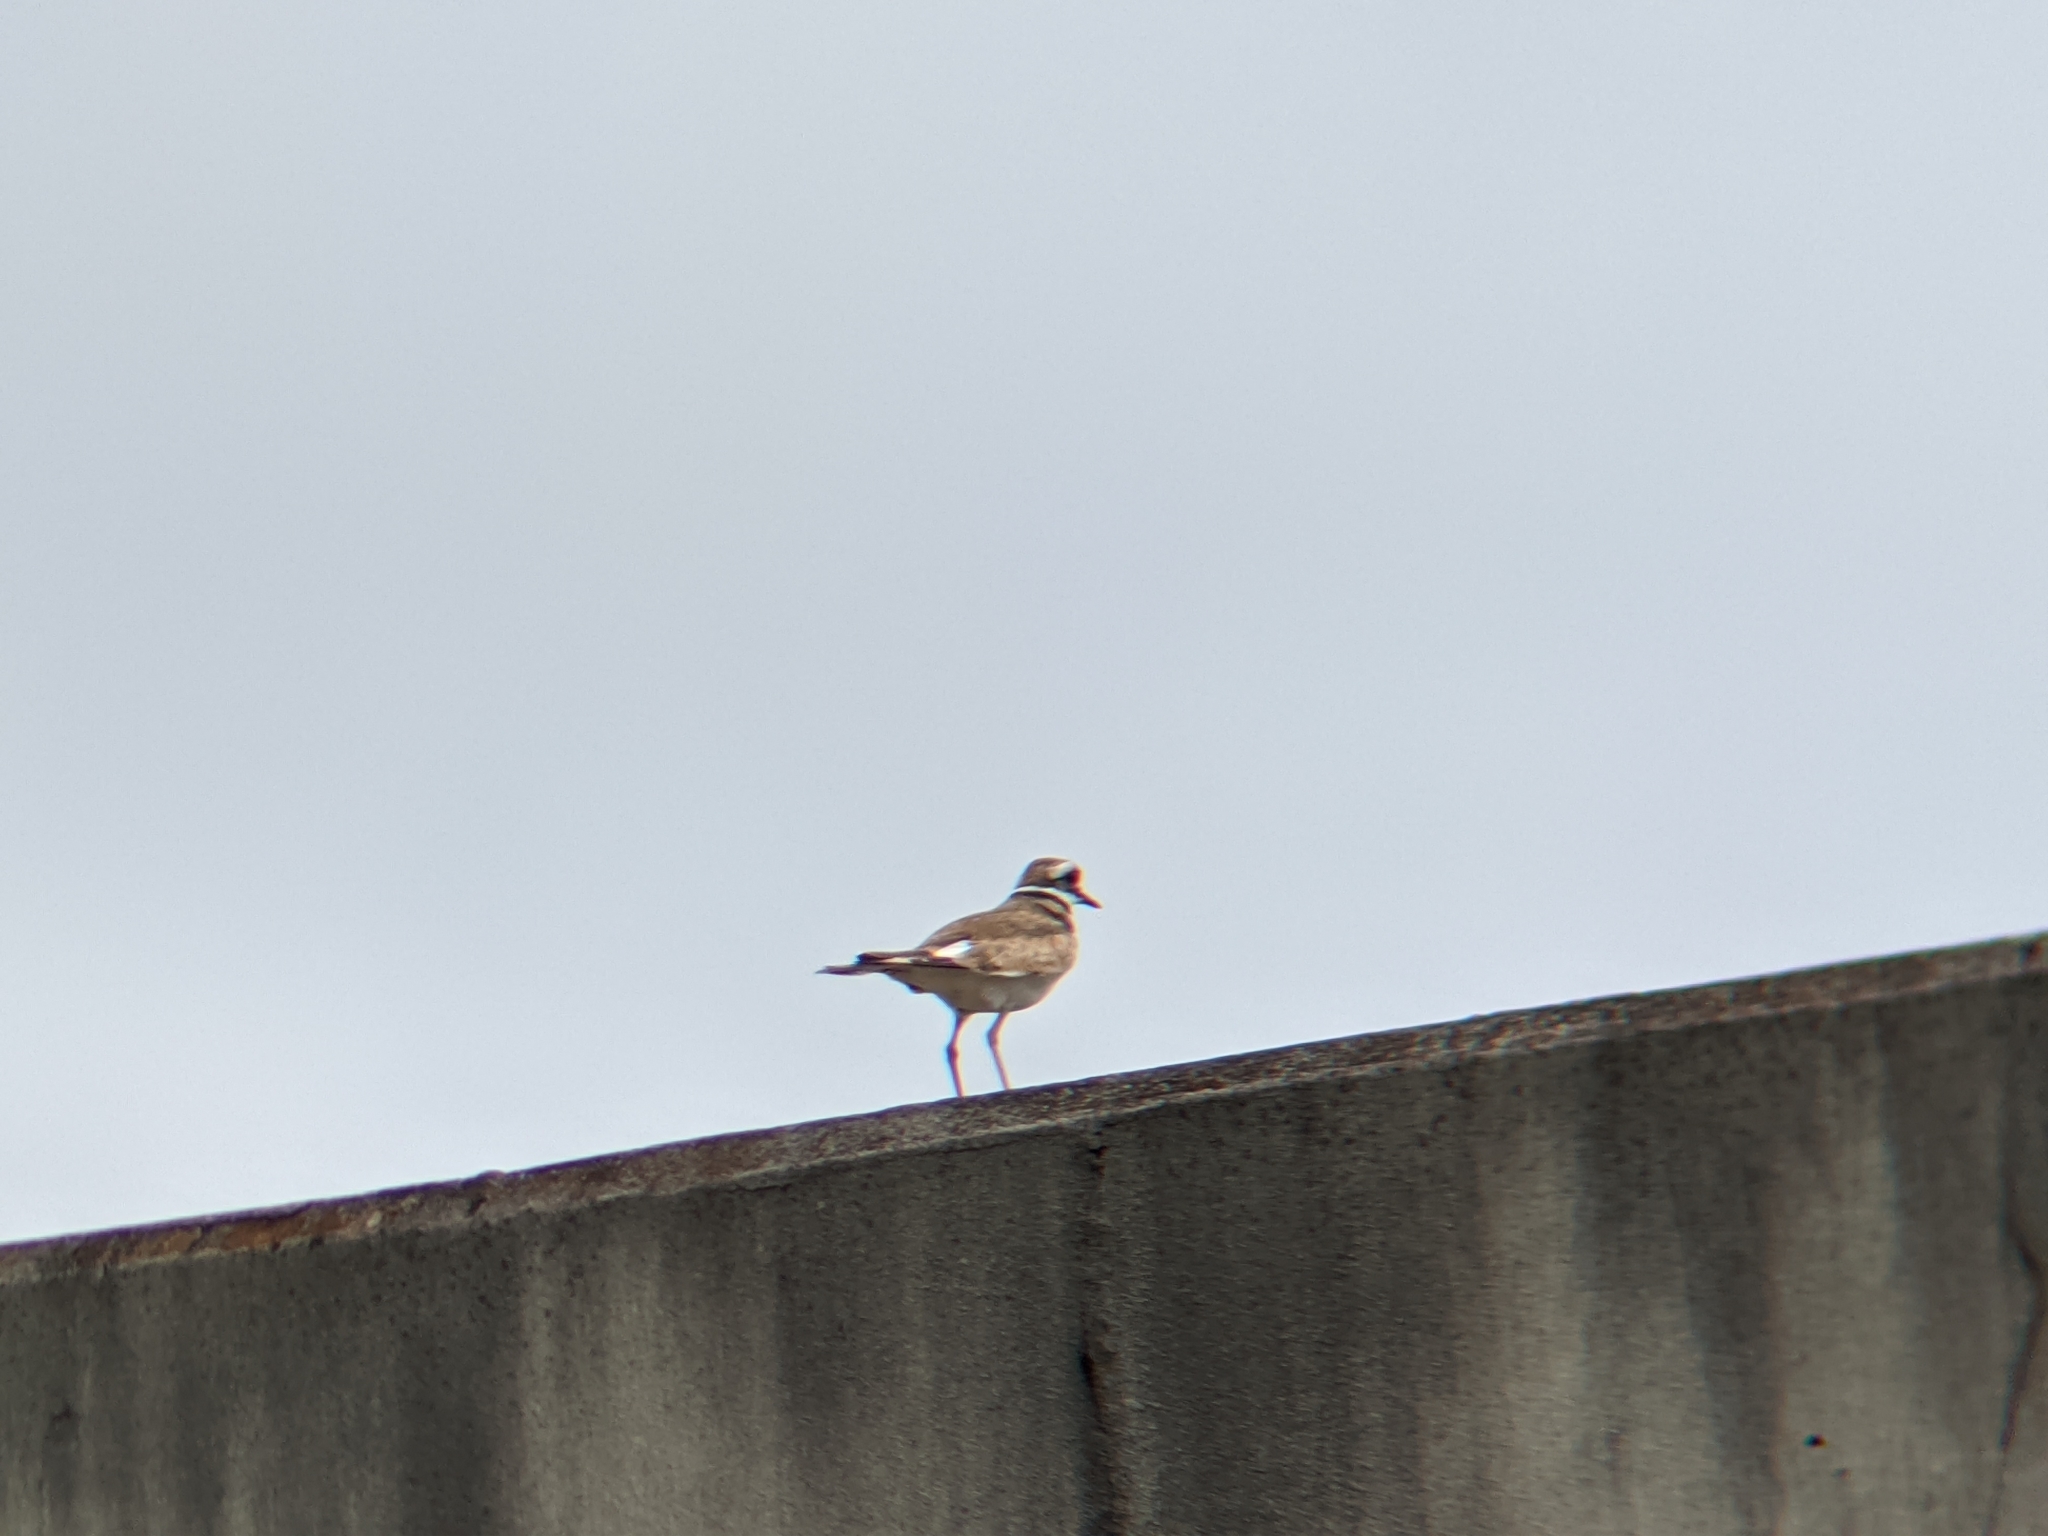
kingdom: Animalia
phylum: Chordata
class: Aves
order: Charadriiformes
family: Charadriidae
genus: Charadrius
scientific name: Charadrius vociferus
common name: Killdeer
